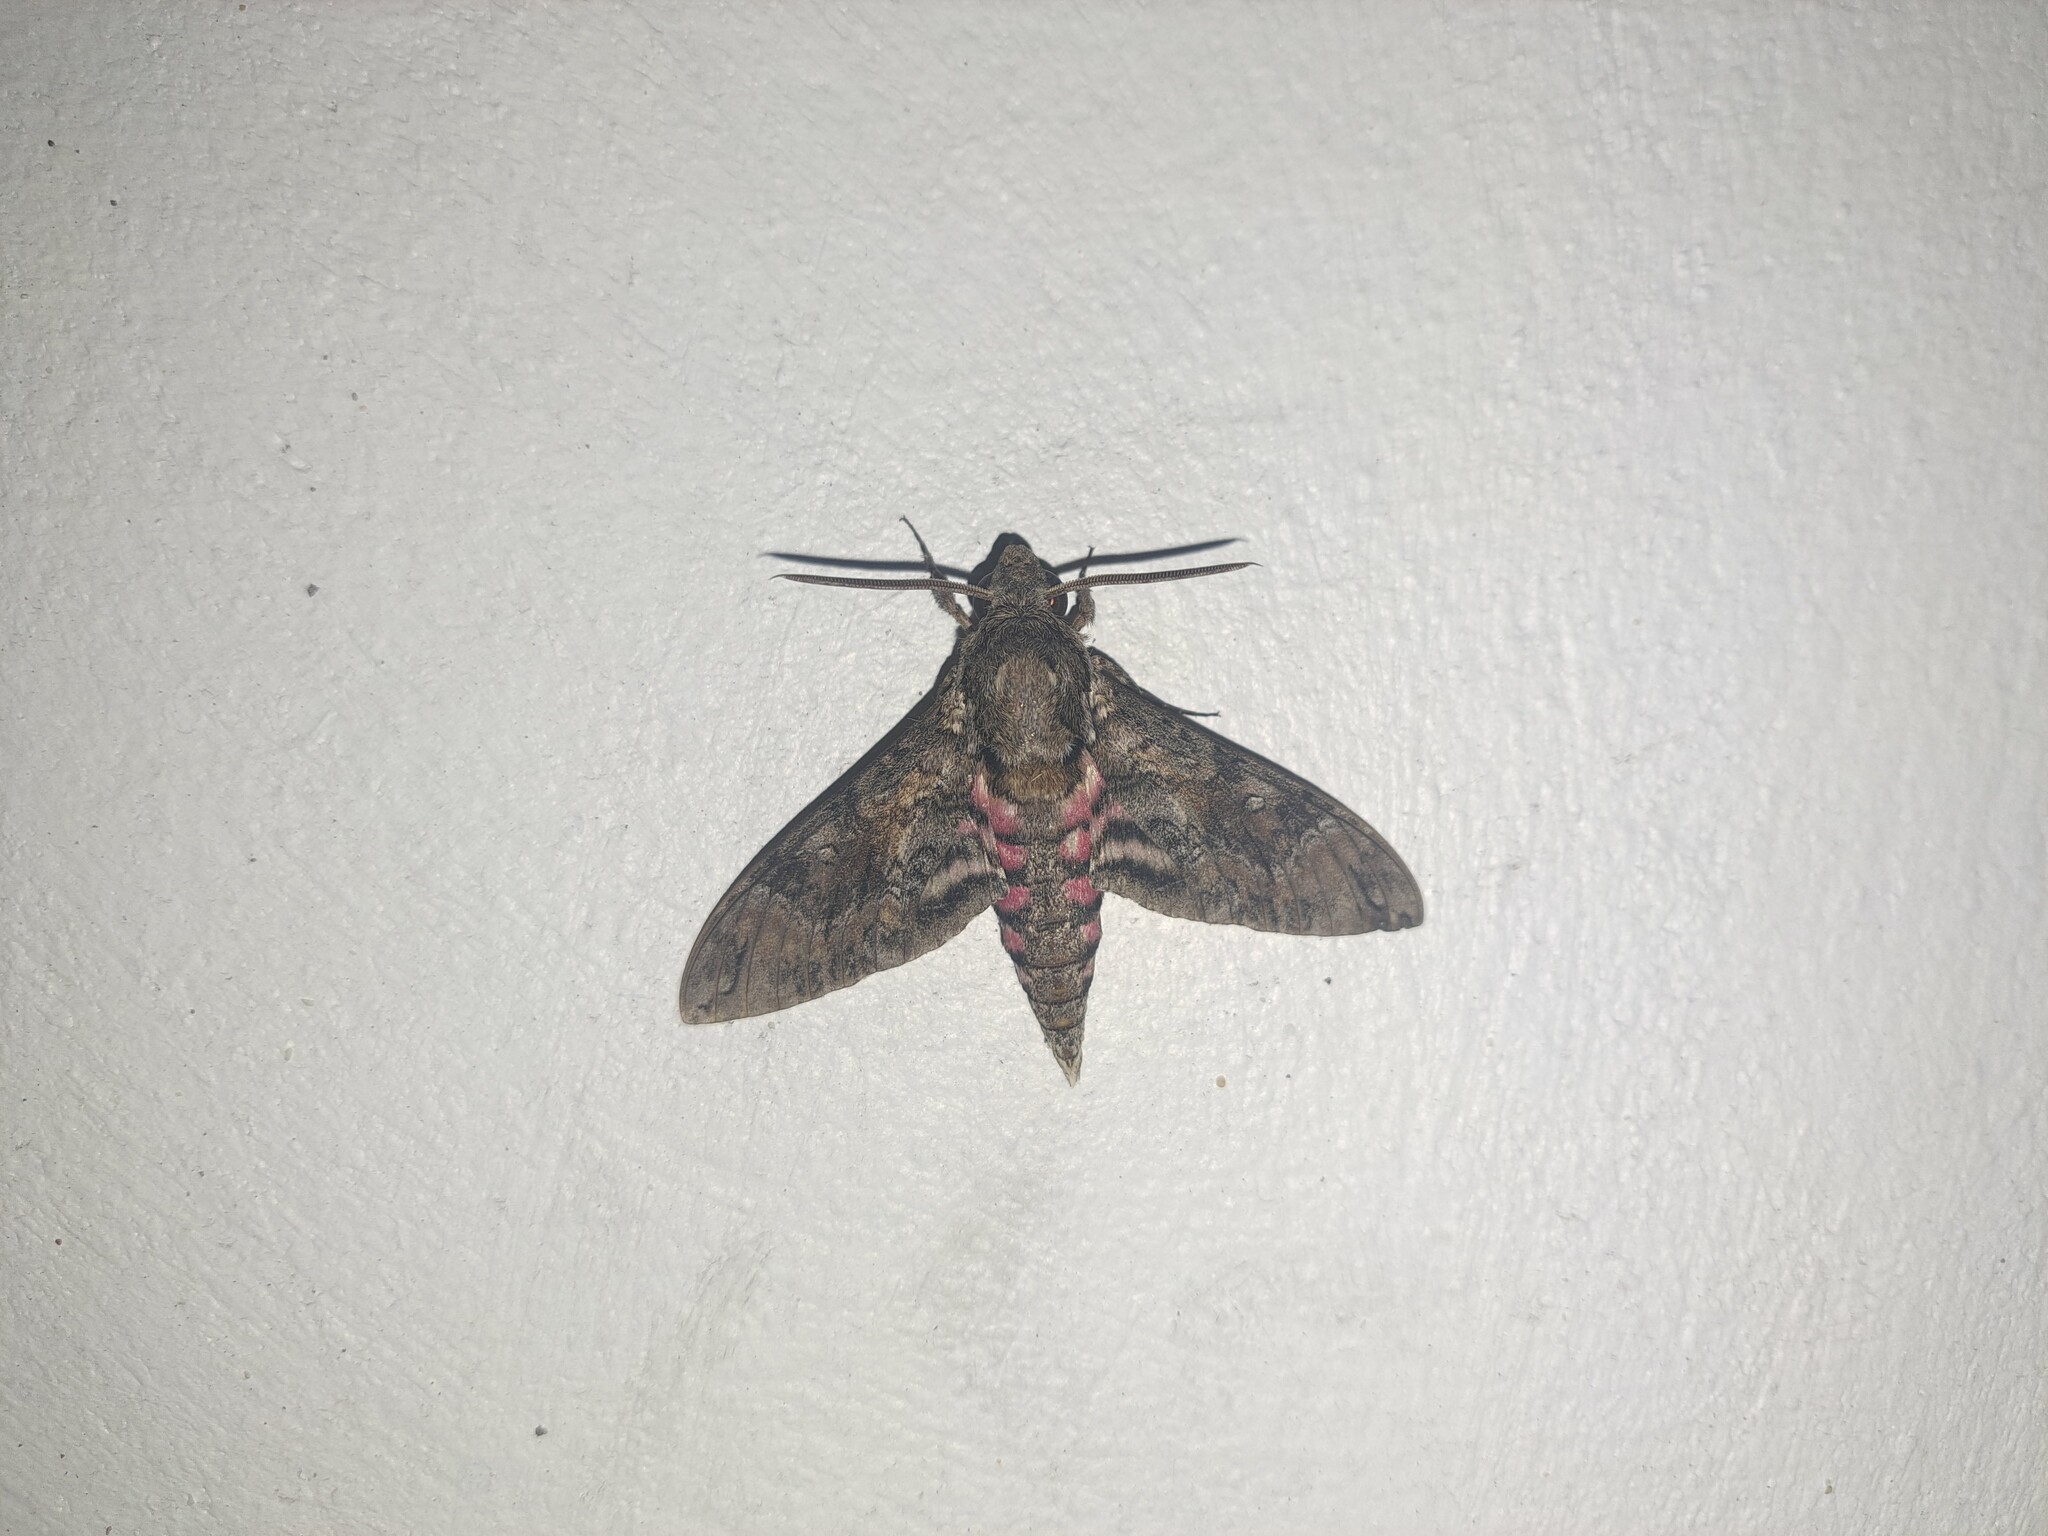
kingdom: Animalia
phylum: Arthropoda
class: Insecta
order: Lepidoptera
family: Sphingidae
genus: Agrius
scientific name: Agrius cingulata
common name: Pink-spotted hawkmoth
